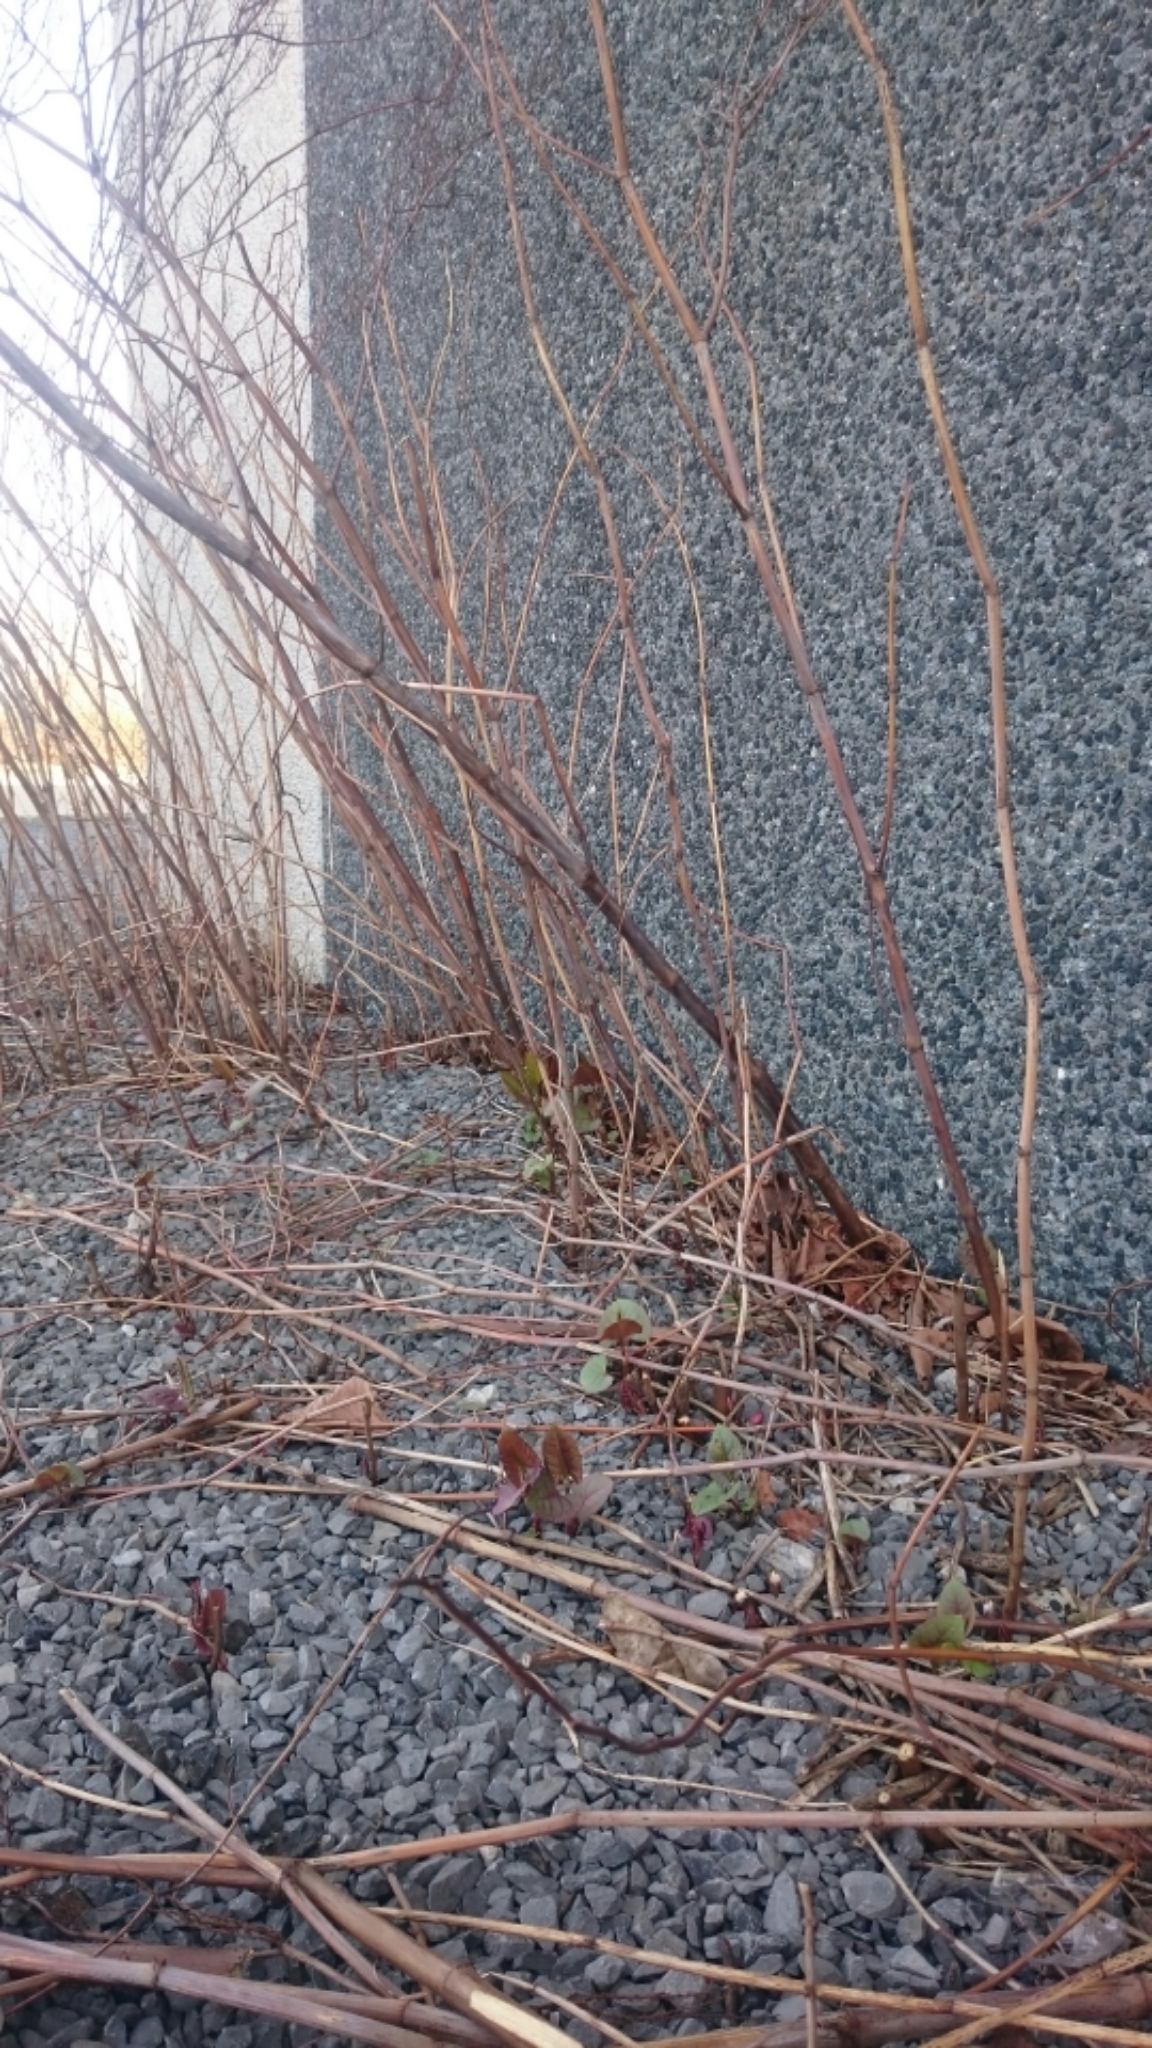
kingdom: Plantae
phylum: Tracheophyta
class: Magnoliopsida
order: Caryophyllales
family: Polygonaceae
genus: Reynoutria
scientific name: Reynoutria japonica
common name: Japanese knotweed
